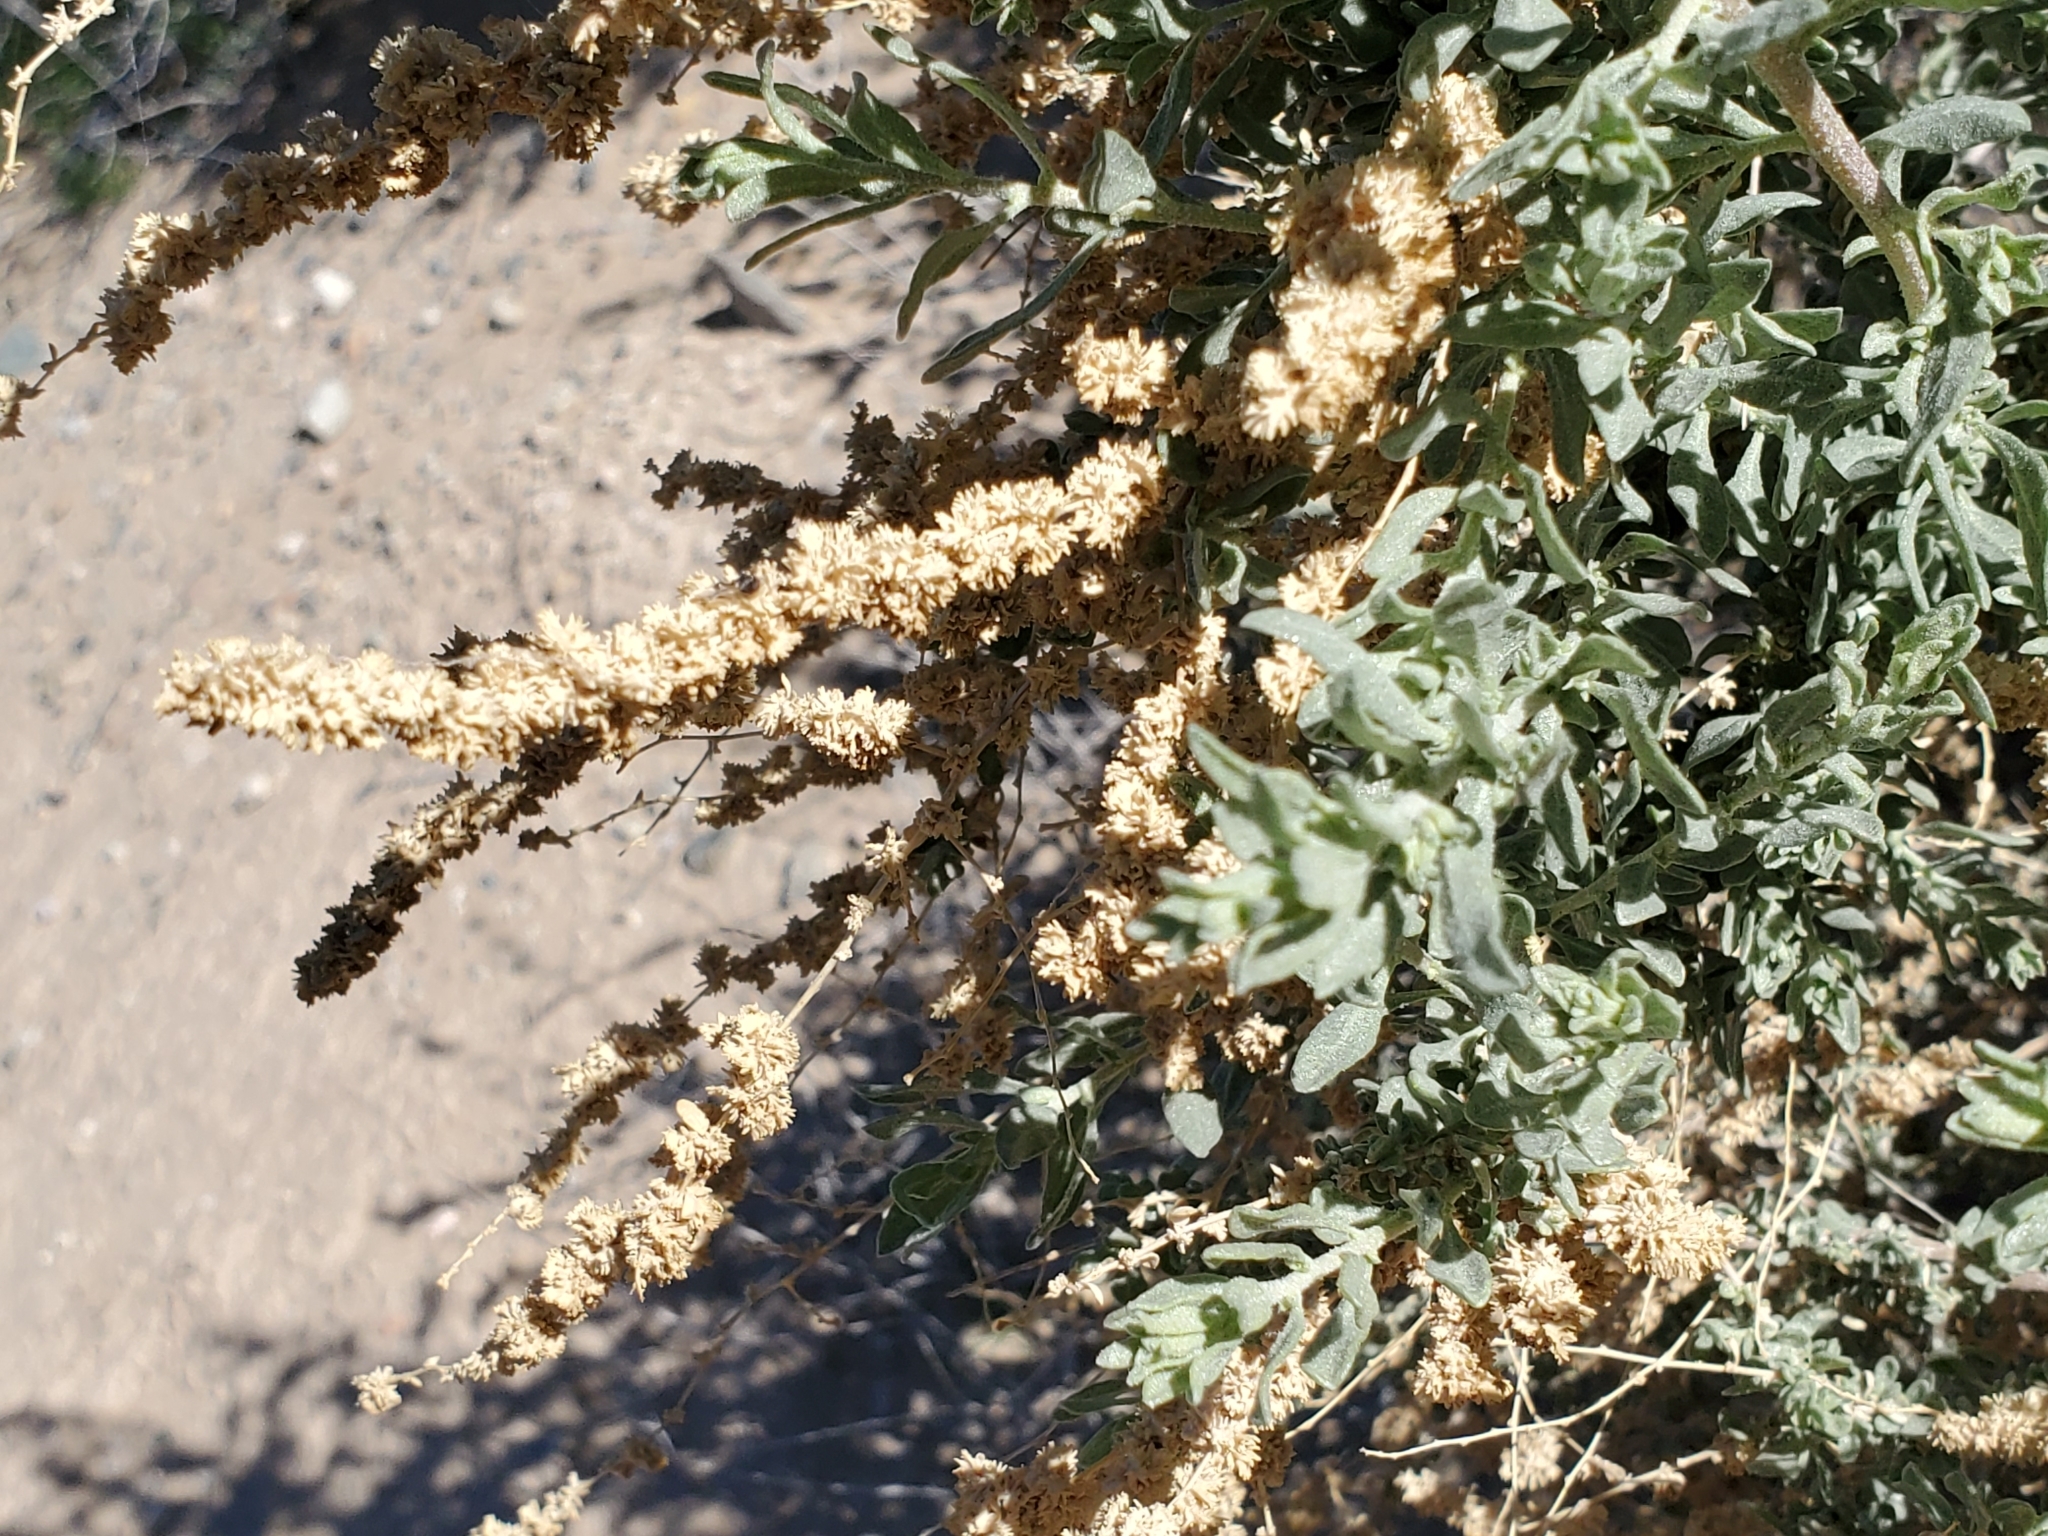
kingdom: Plantae
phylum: Tracheophyta
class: Magnoliopsida
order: Caryophyllales
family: Amaranthaceae
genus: Atriplex
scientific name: Atriplex canescens
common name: Four-wing saltbush
